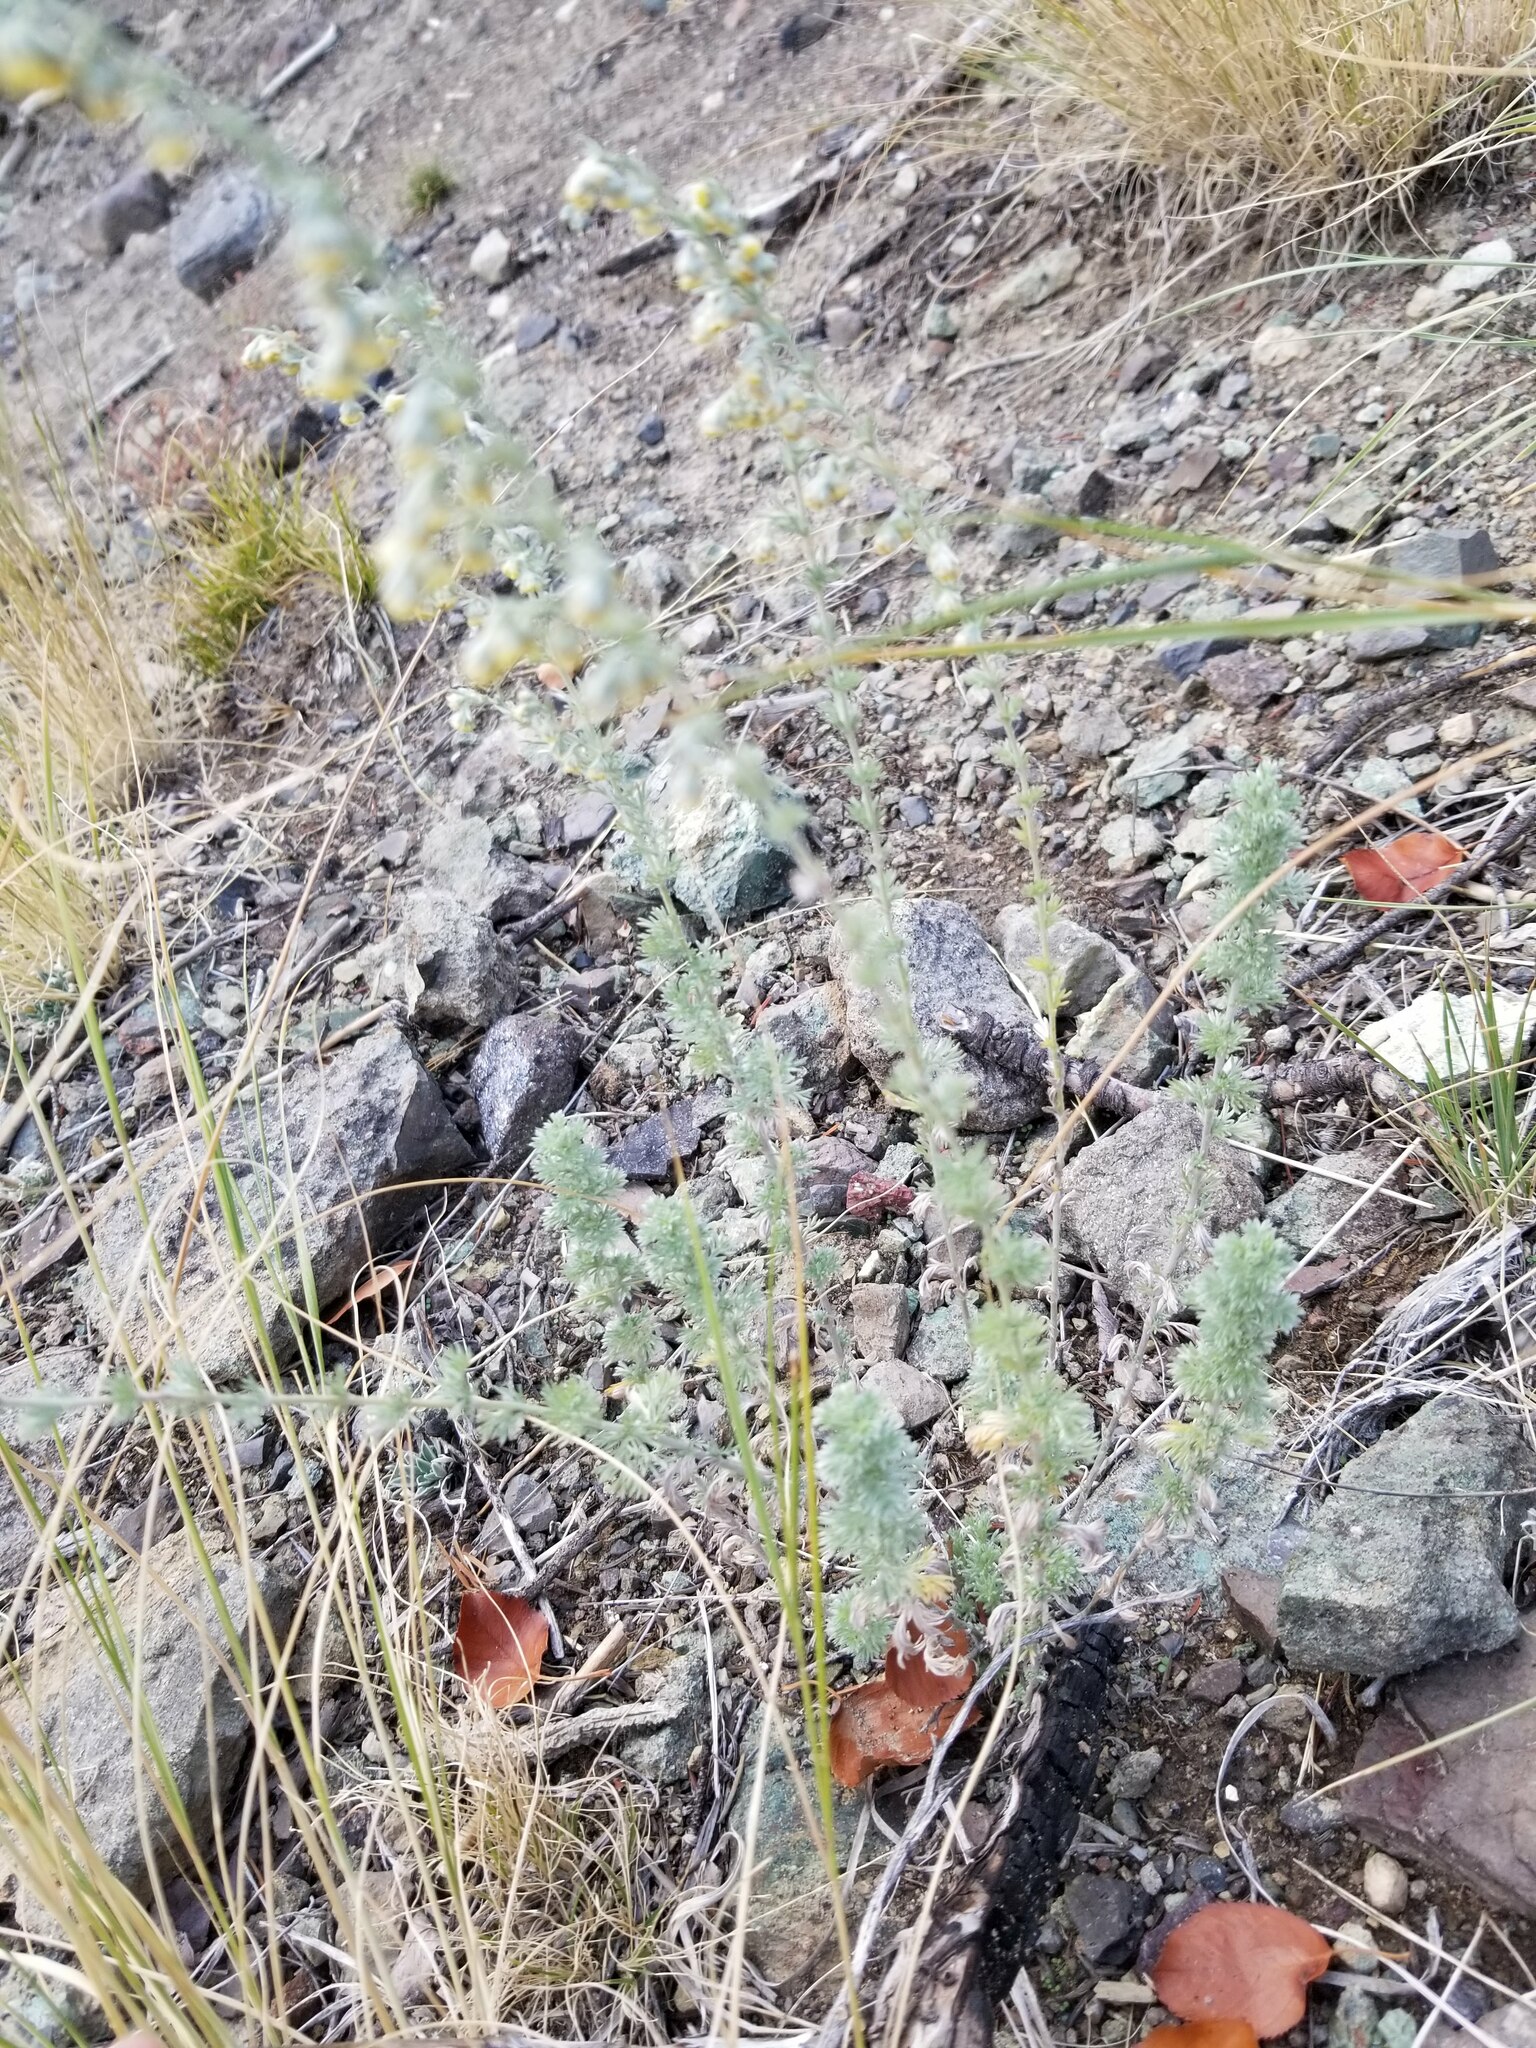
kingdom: Plantae
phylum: Tracheophyta
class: Magnoliopsida
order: Asterales
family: Asteraceae
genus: Artemisia
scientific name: Artemisia frigida
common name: Prairie sagewort
